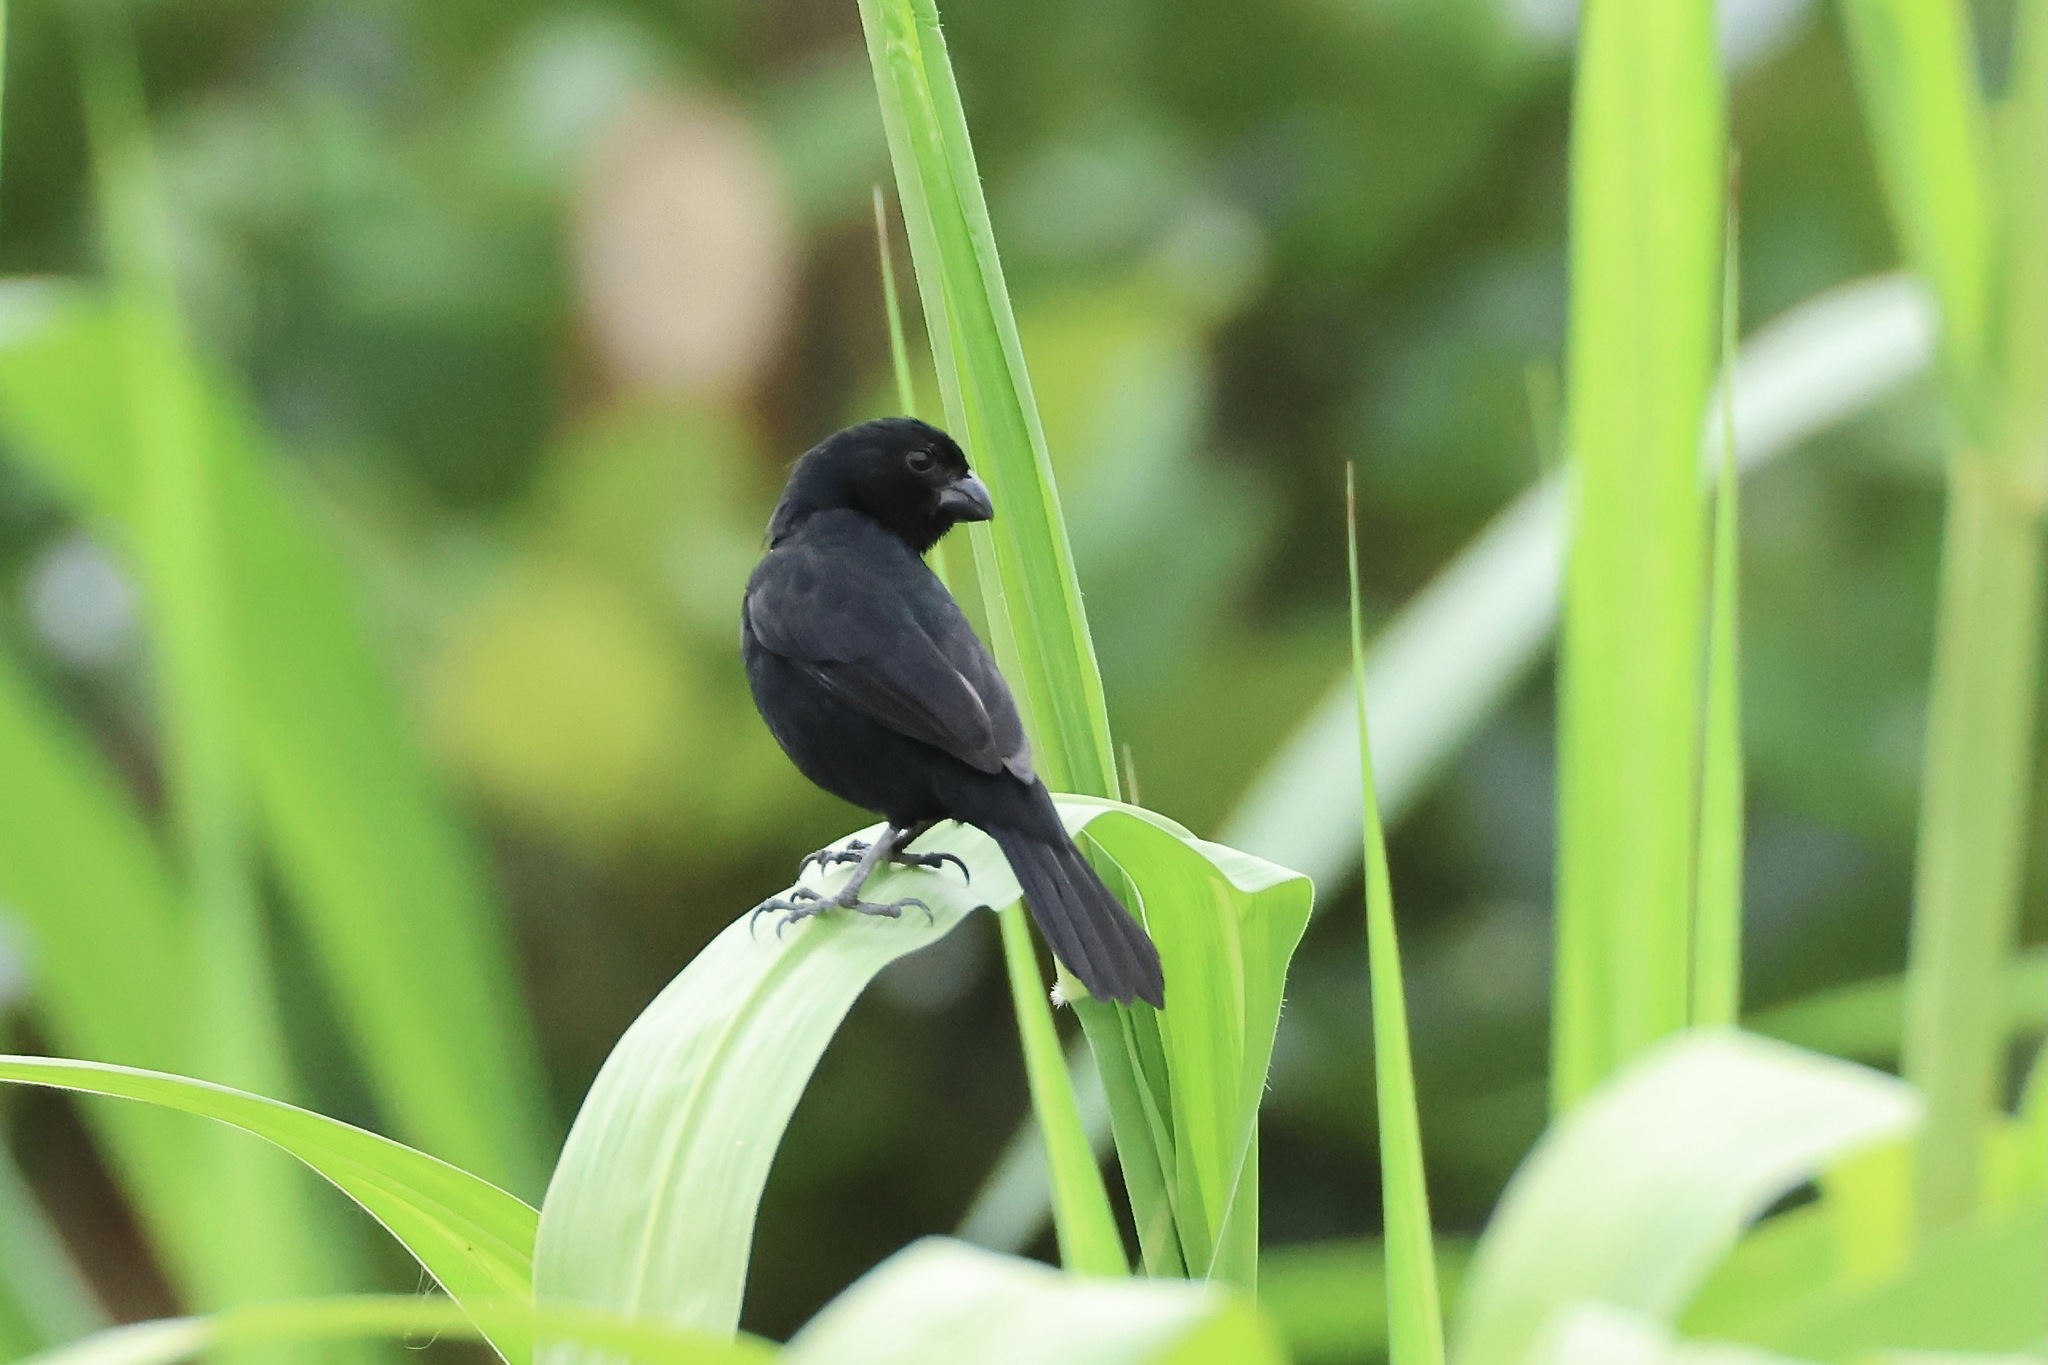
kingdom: Animalia
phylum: Chordata
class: Aves
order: Passeriformes
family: Thraupidae
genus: Sporophila
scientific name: Sporophila corvina
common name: Variable seedeater
